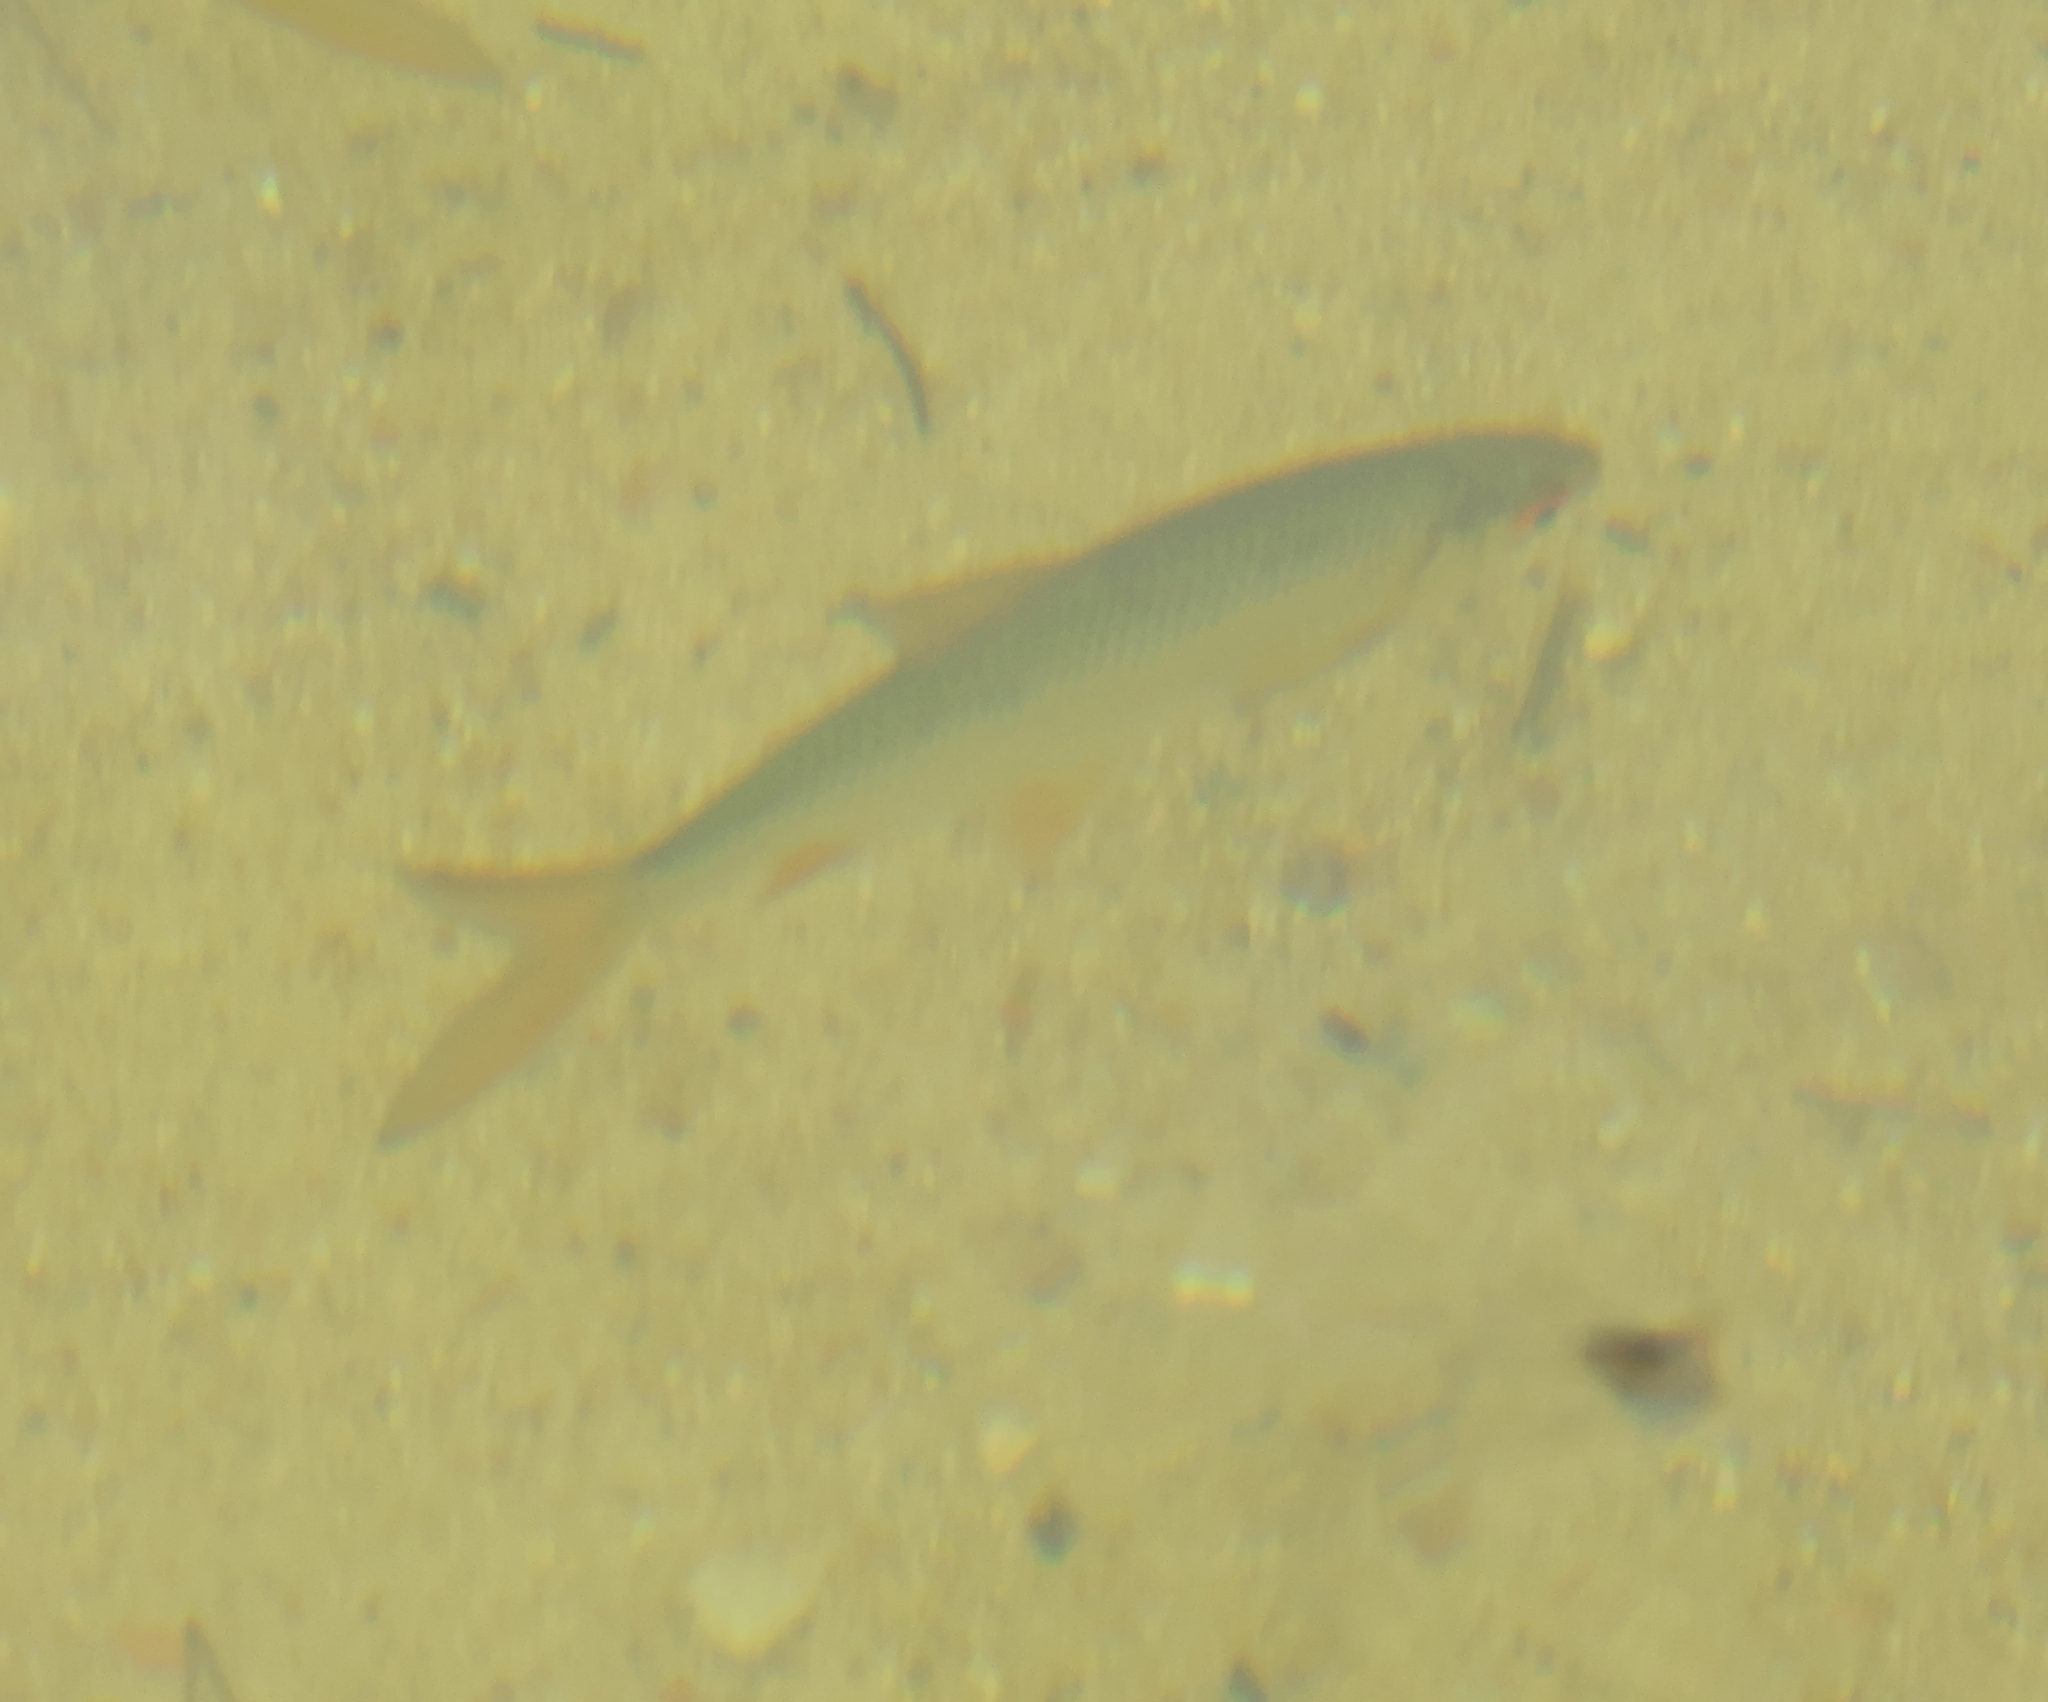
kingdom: Animalia
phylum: Chordata
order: Cypriniformes
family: Cyprinidae
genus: Rutilus
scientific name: Rutilus rutilus
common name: Roach
